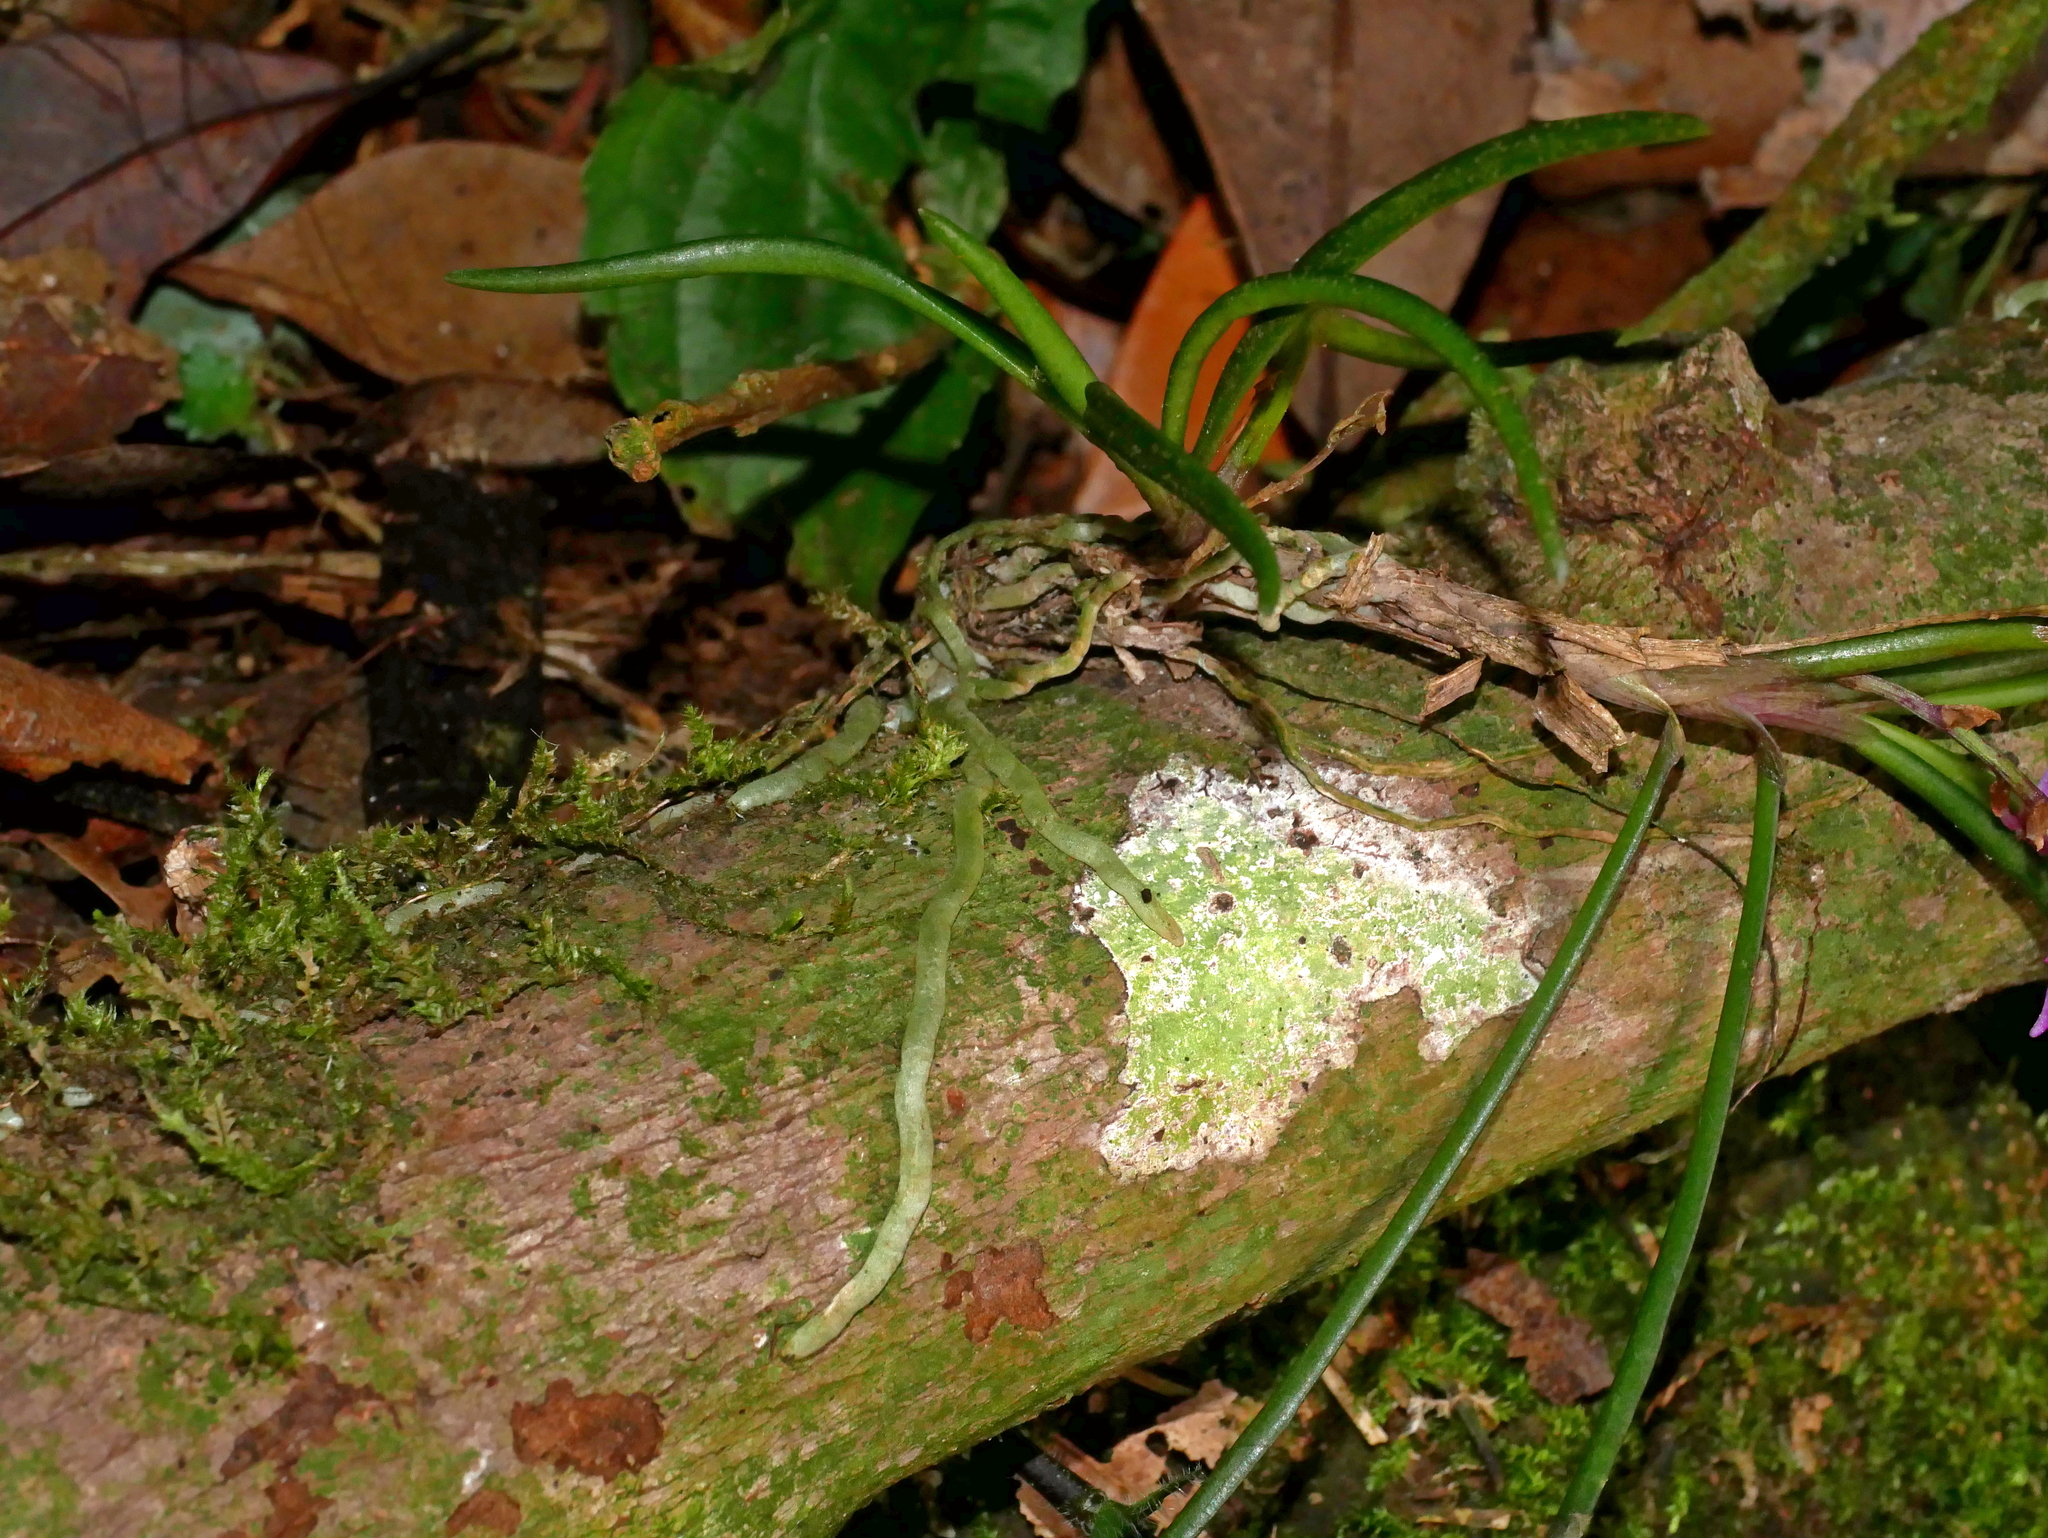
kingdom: Plantae
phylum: Tracheophyta
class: Liliopsida
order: Asparagales
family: Orchidaceae
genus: Holcoglossum
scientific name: Holcoglossum pumilum
